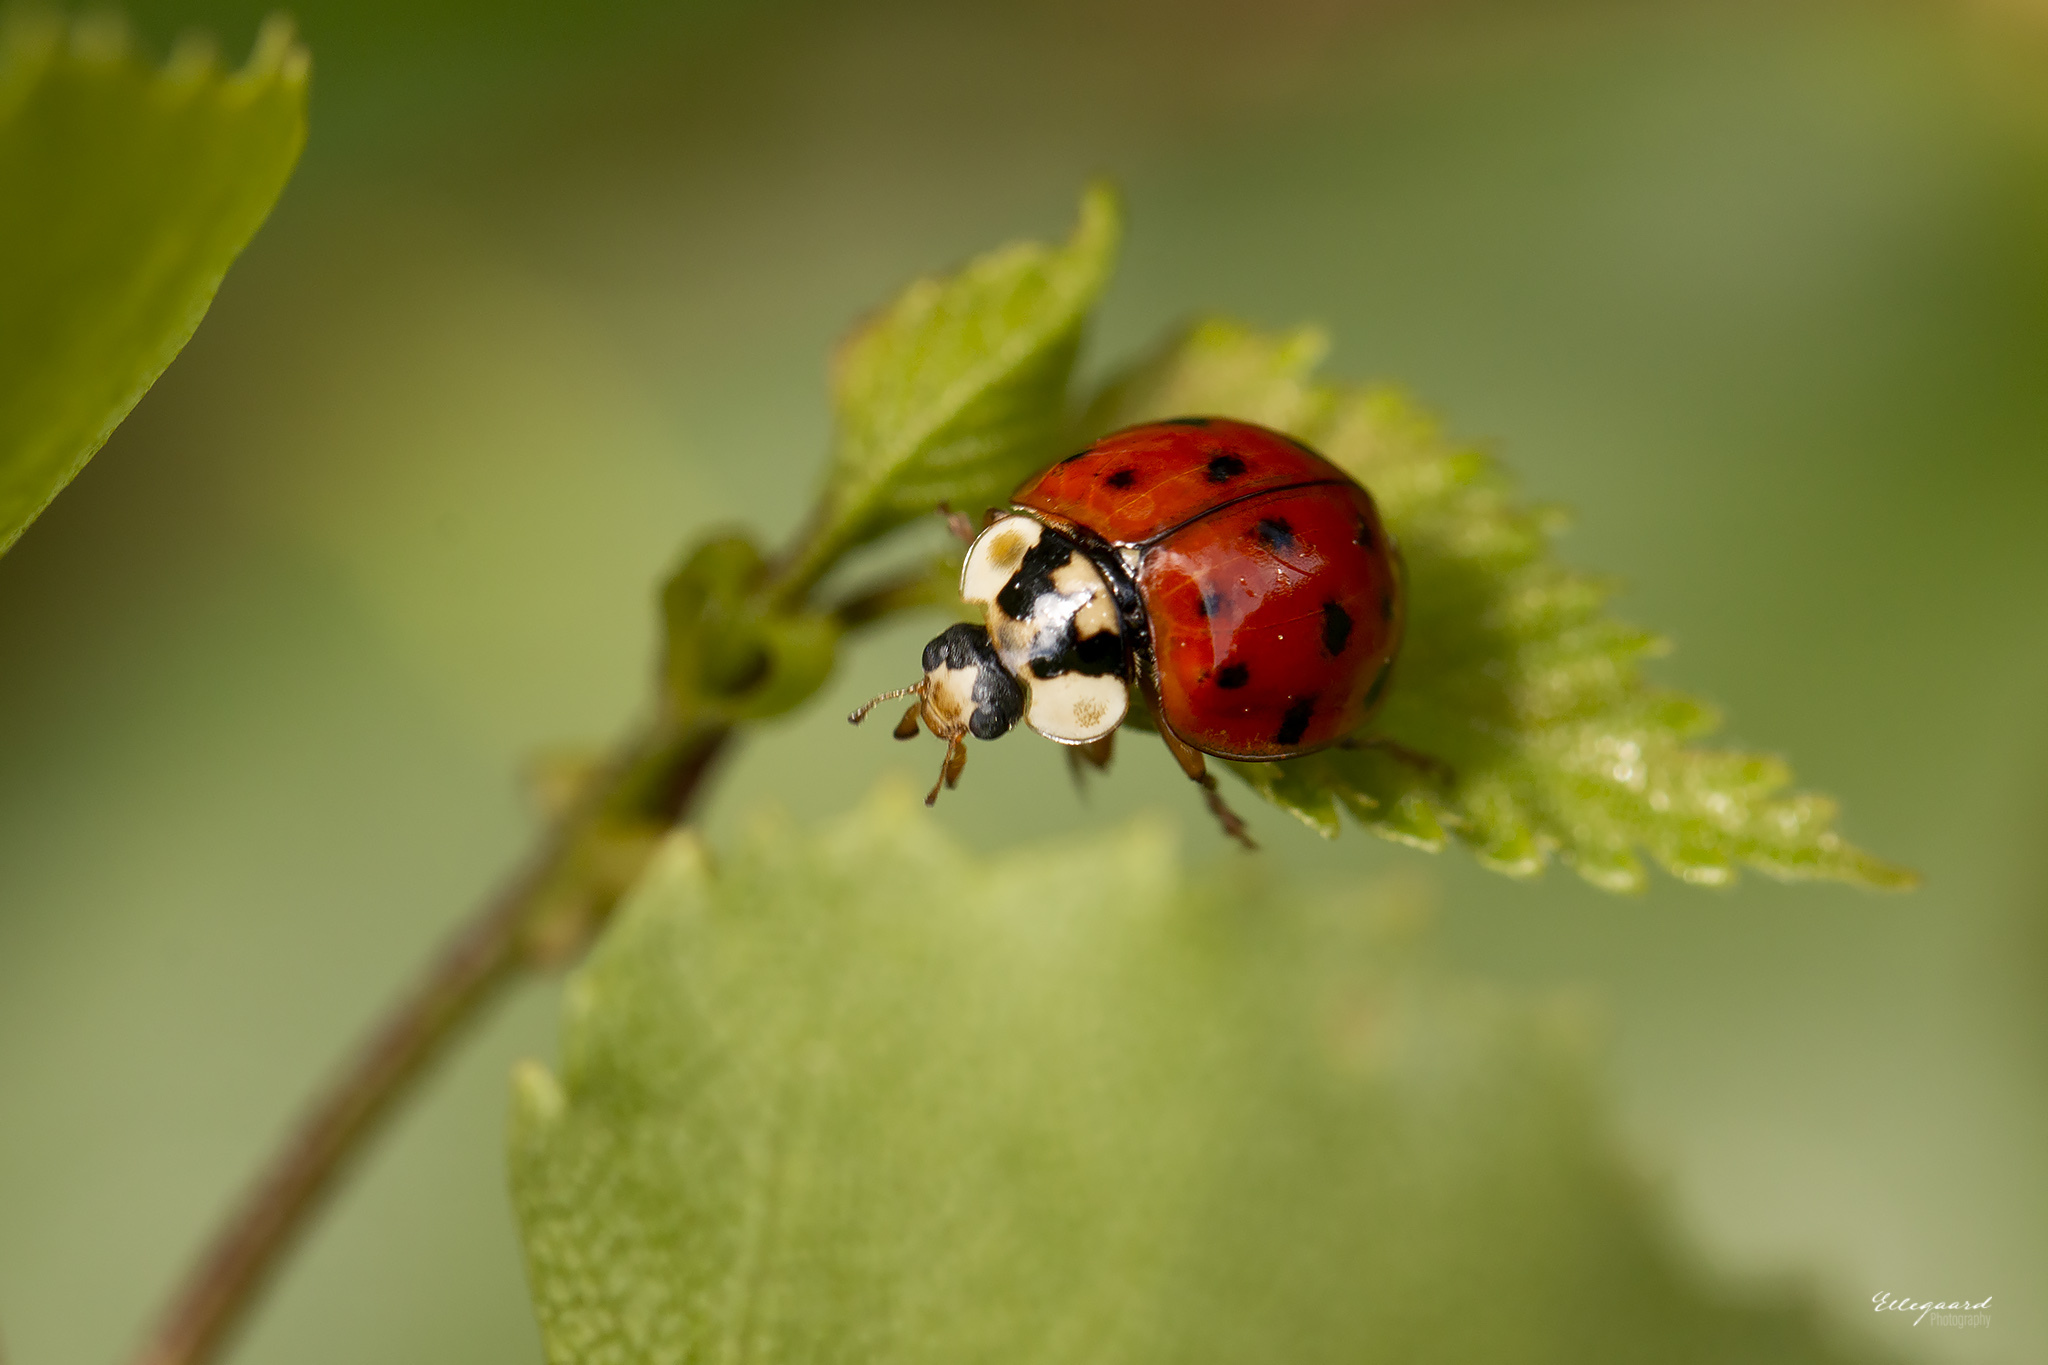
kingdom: Animalia
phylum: Arthropoda
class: Insecta
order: Coleoptera
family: Coccinellidae
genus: Harmonia
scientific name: Harmonia axyridis
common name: Harlequin ladybird
